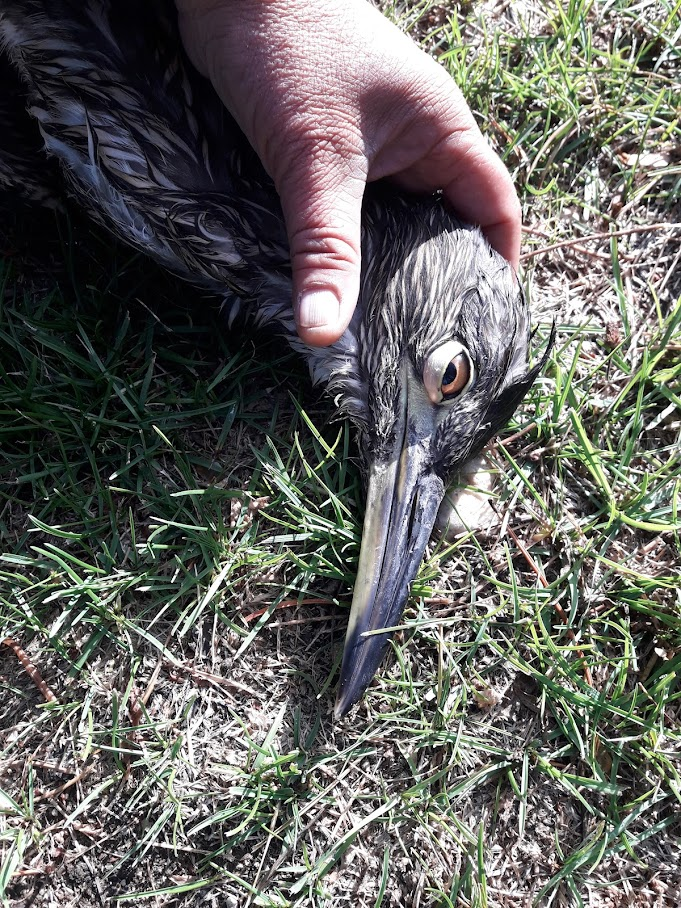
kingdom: Animalia
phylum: Chordata
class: Aves
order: Pelecaniformes
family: Ardeidae
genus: Nycticorax
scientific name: Nycticorax nycticorax
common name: Black-crowned night heron
